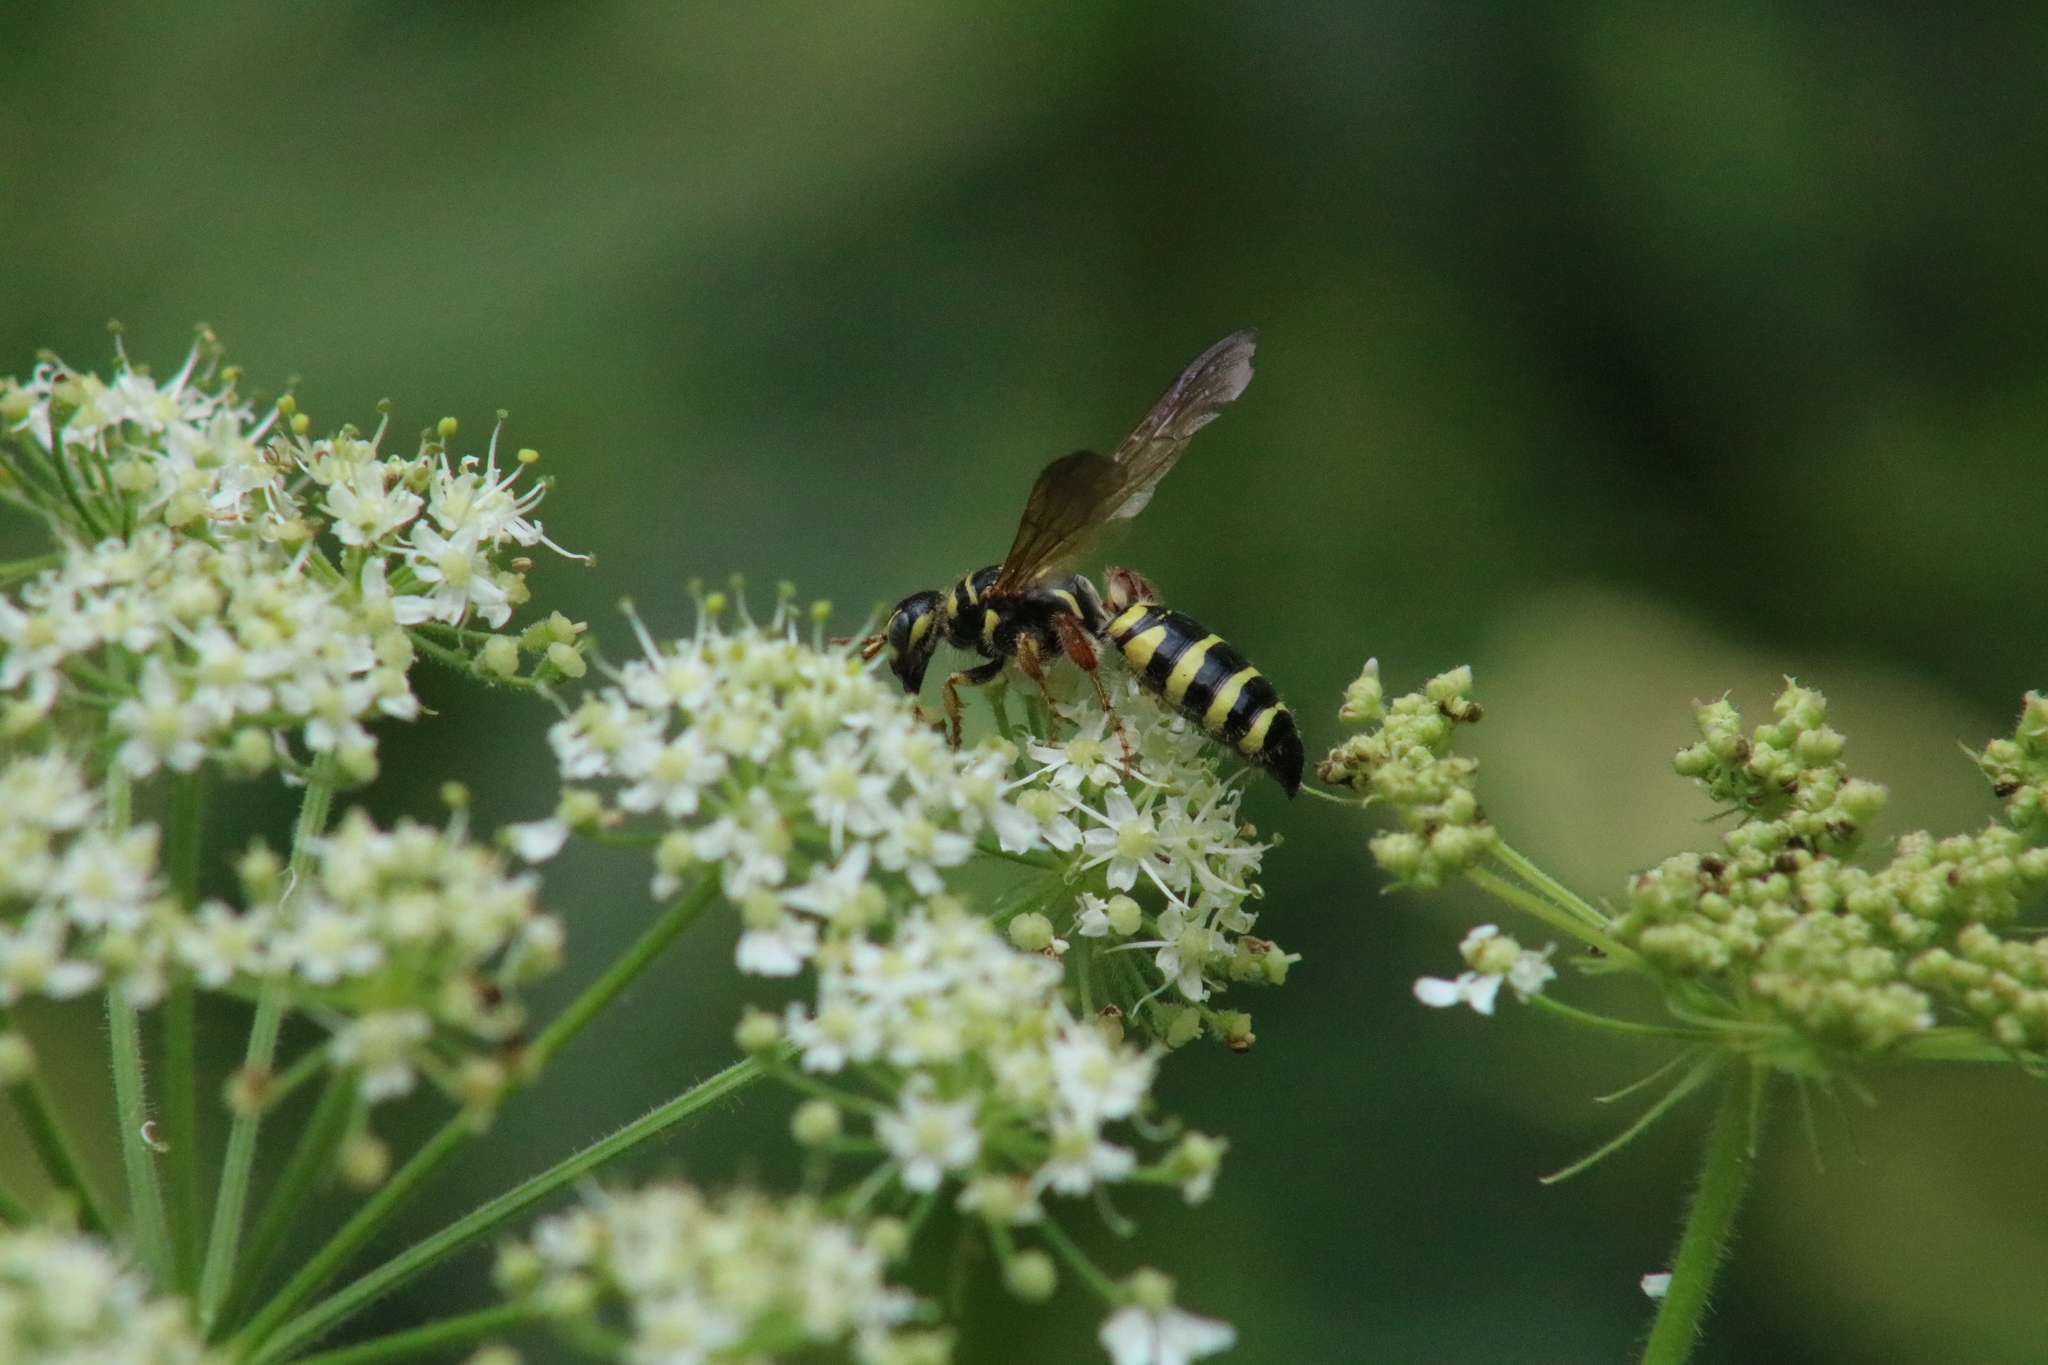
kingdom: Animalia
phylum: Arthropoda
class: Insecta
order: Hymenoptera
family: Tiphiidae
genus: Myzinum
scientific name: Myzinum quinquecinctum
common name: Five-banded thynnid wasp
